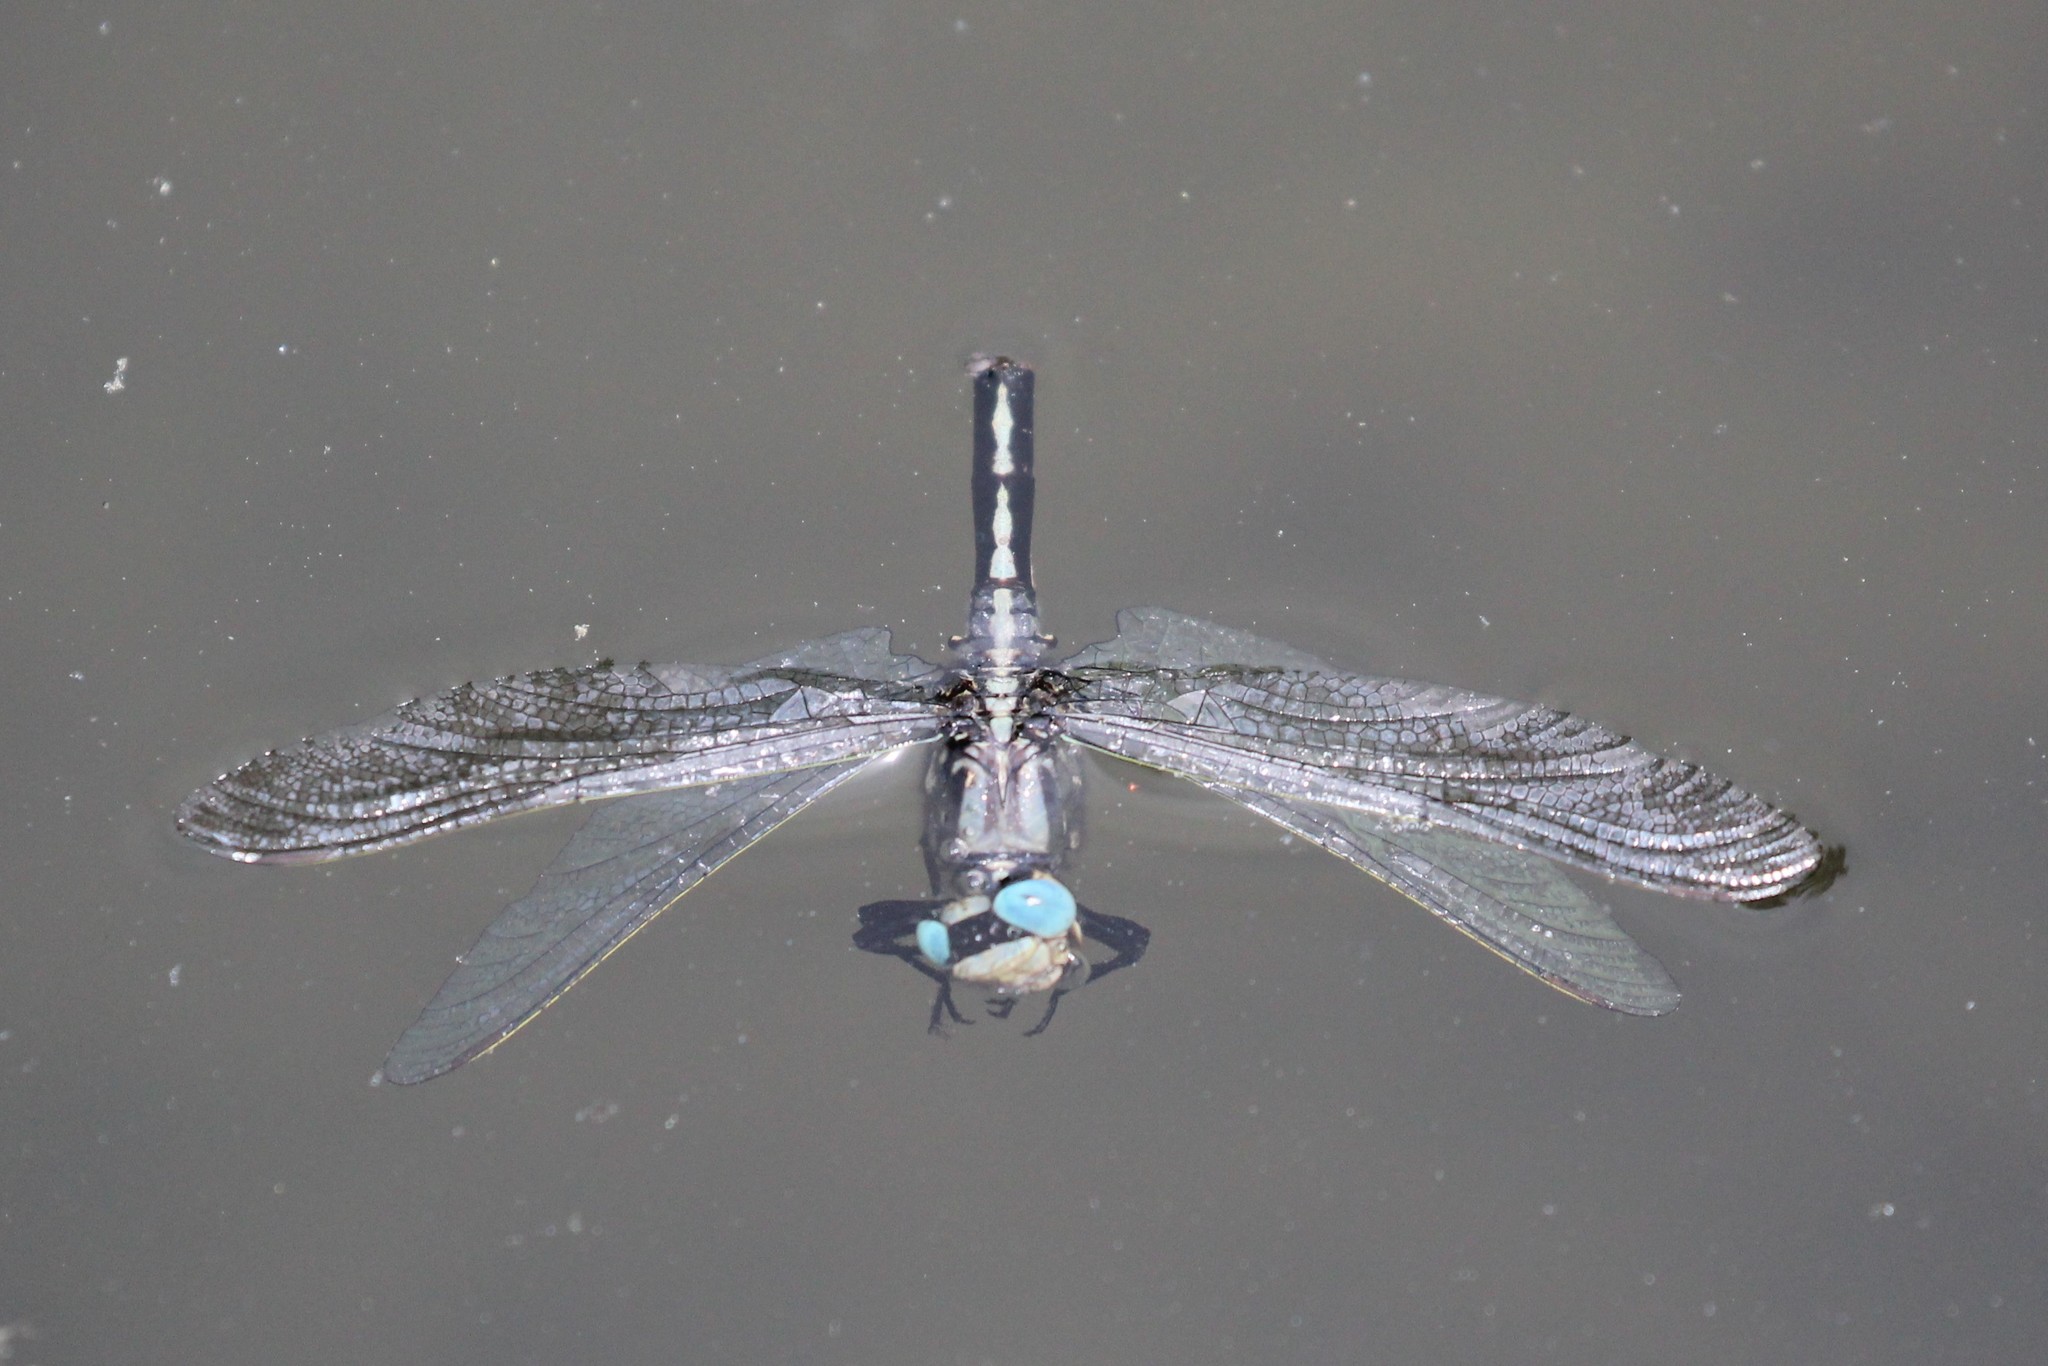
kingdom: Animalia
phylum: Arthropoda
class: Insecta
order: Odonata
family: Gomphidae
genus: Arigomphus
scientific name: Arigomphus cornutus
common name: Horned clubtail
